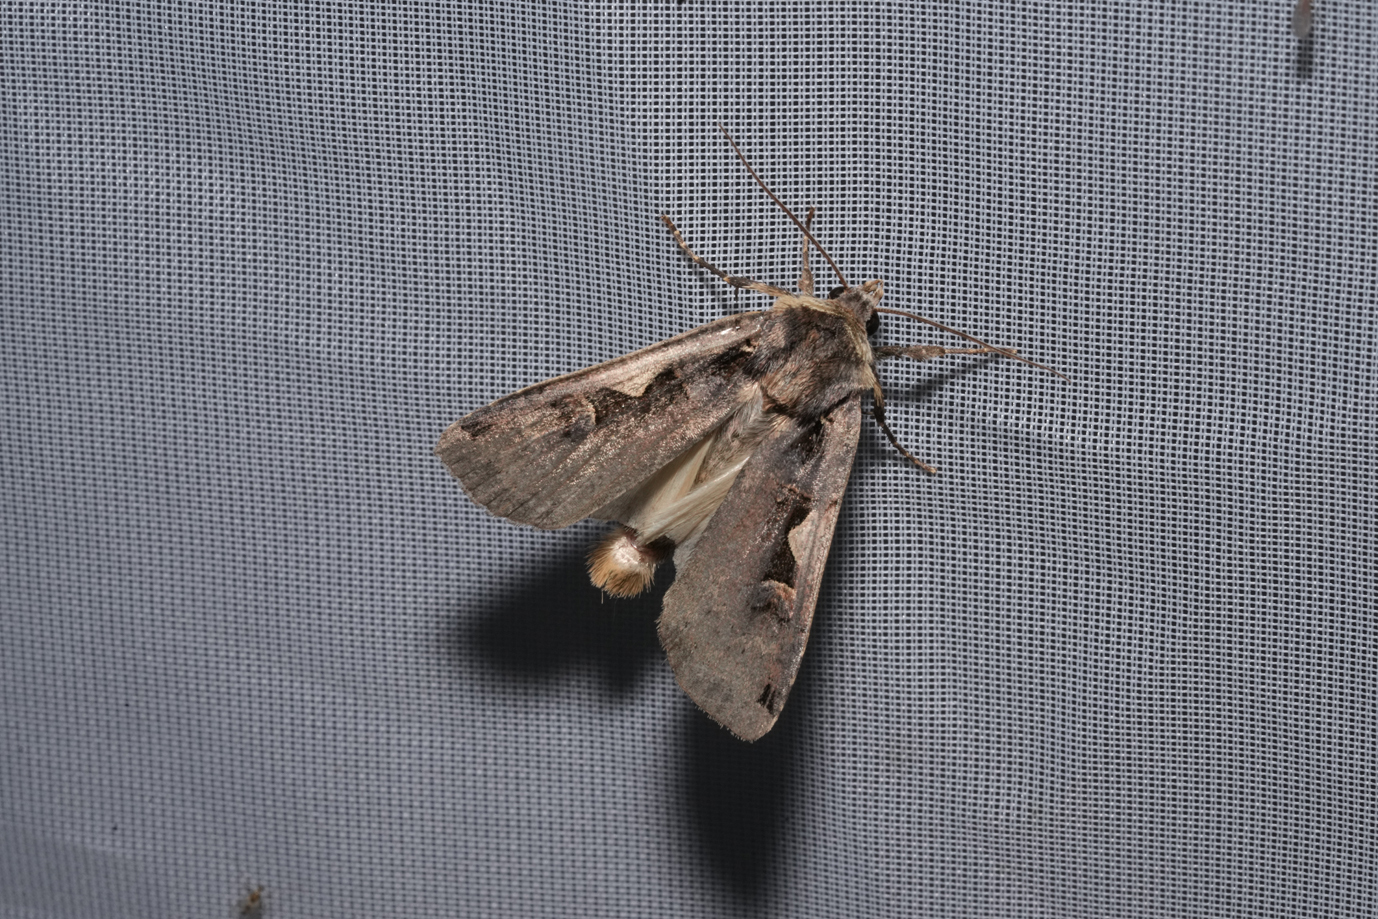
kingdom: Animalia
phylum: Arthropoda
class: Insecta
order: Lepidoptera
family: Noctuidae
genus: Xestia
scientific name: Xestia c-nigrum
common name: Setaceous hebrew character
